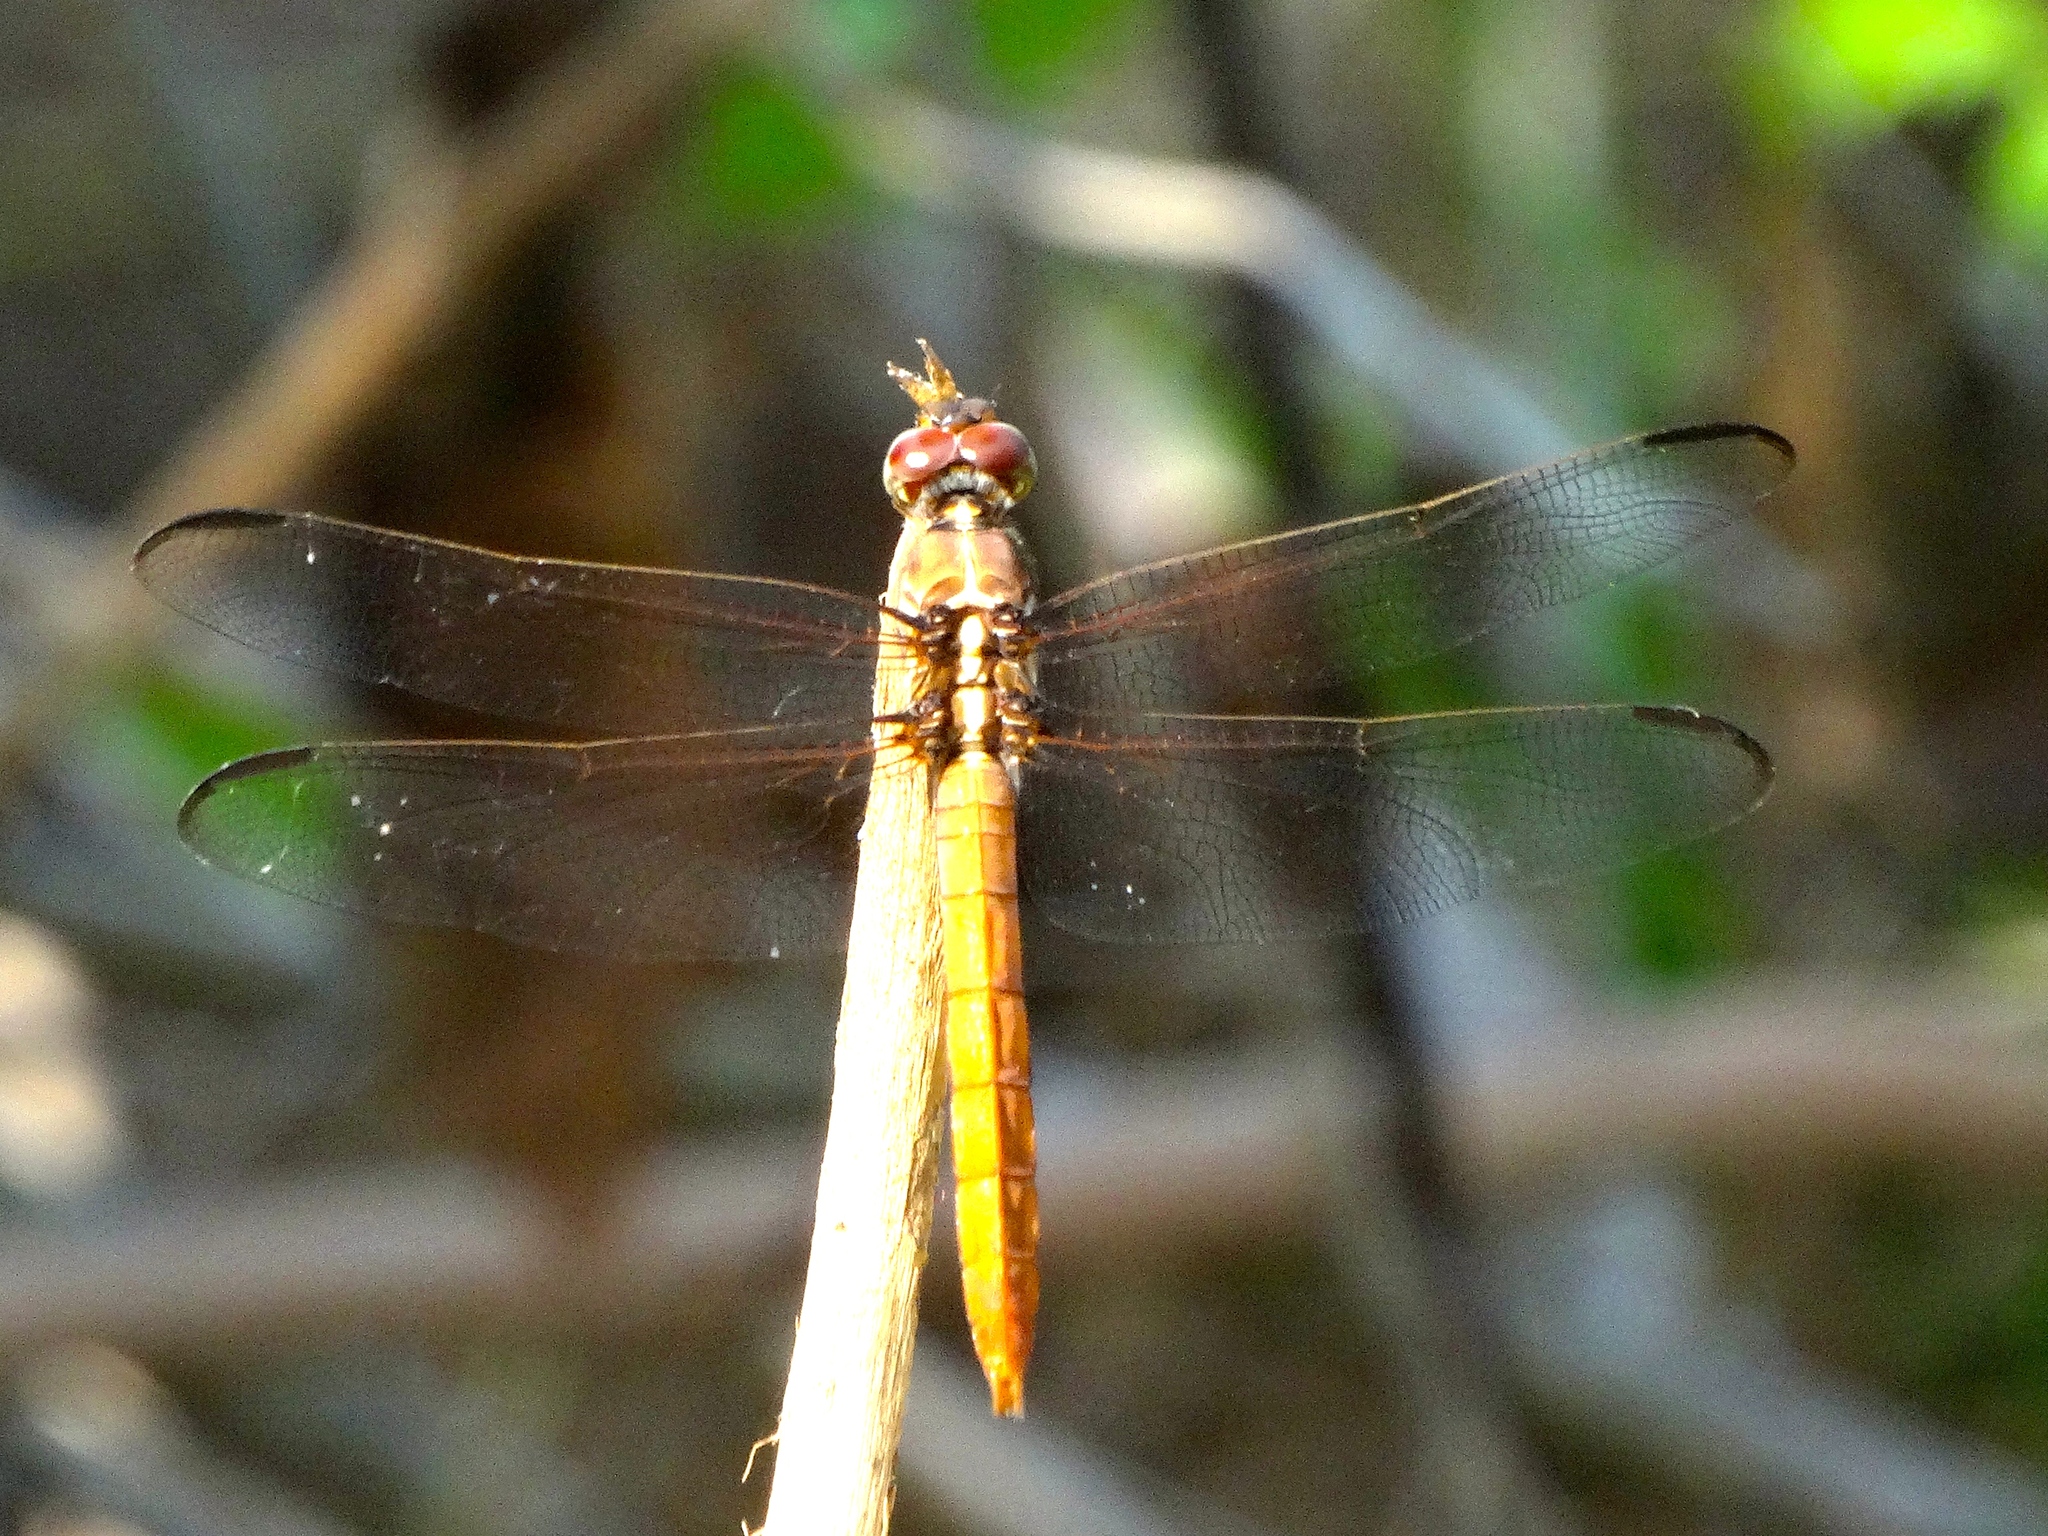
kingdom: Animalia
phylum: Arthropoda
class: Insecta
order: Odonata
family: Libellulidae
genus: Orthemis
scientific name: Orthemis ferruginea
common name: Roseate skimmer
